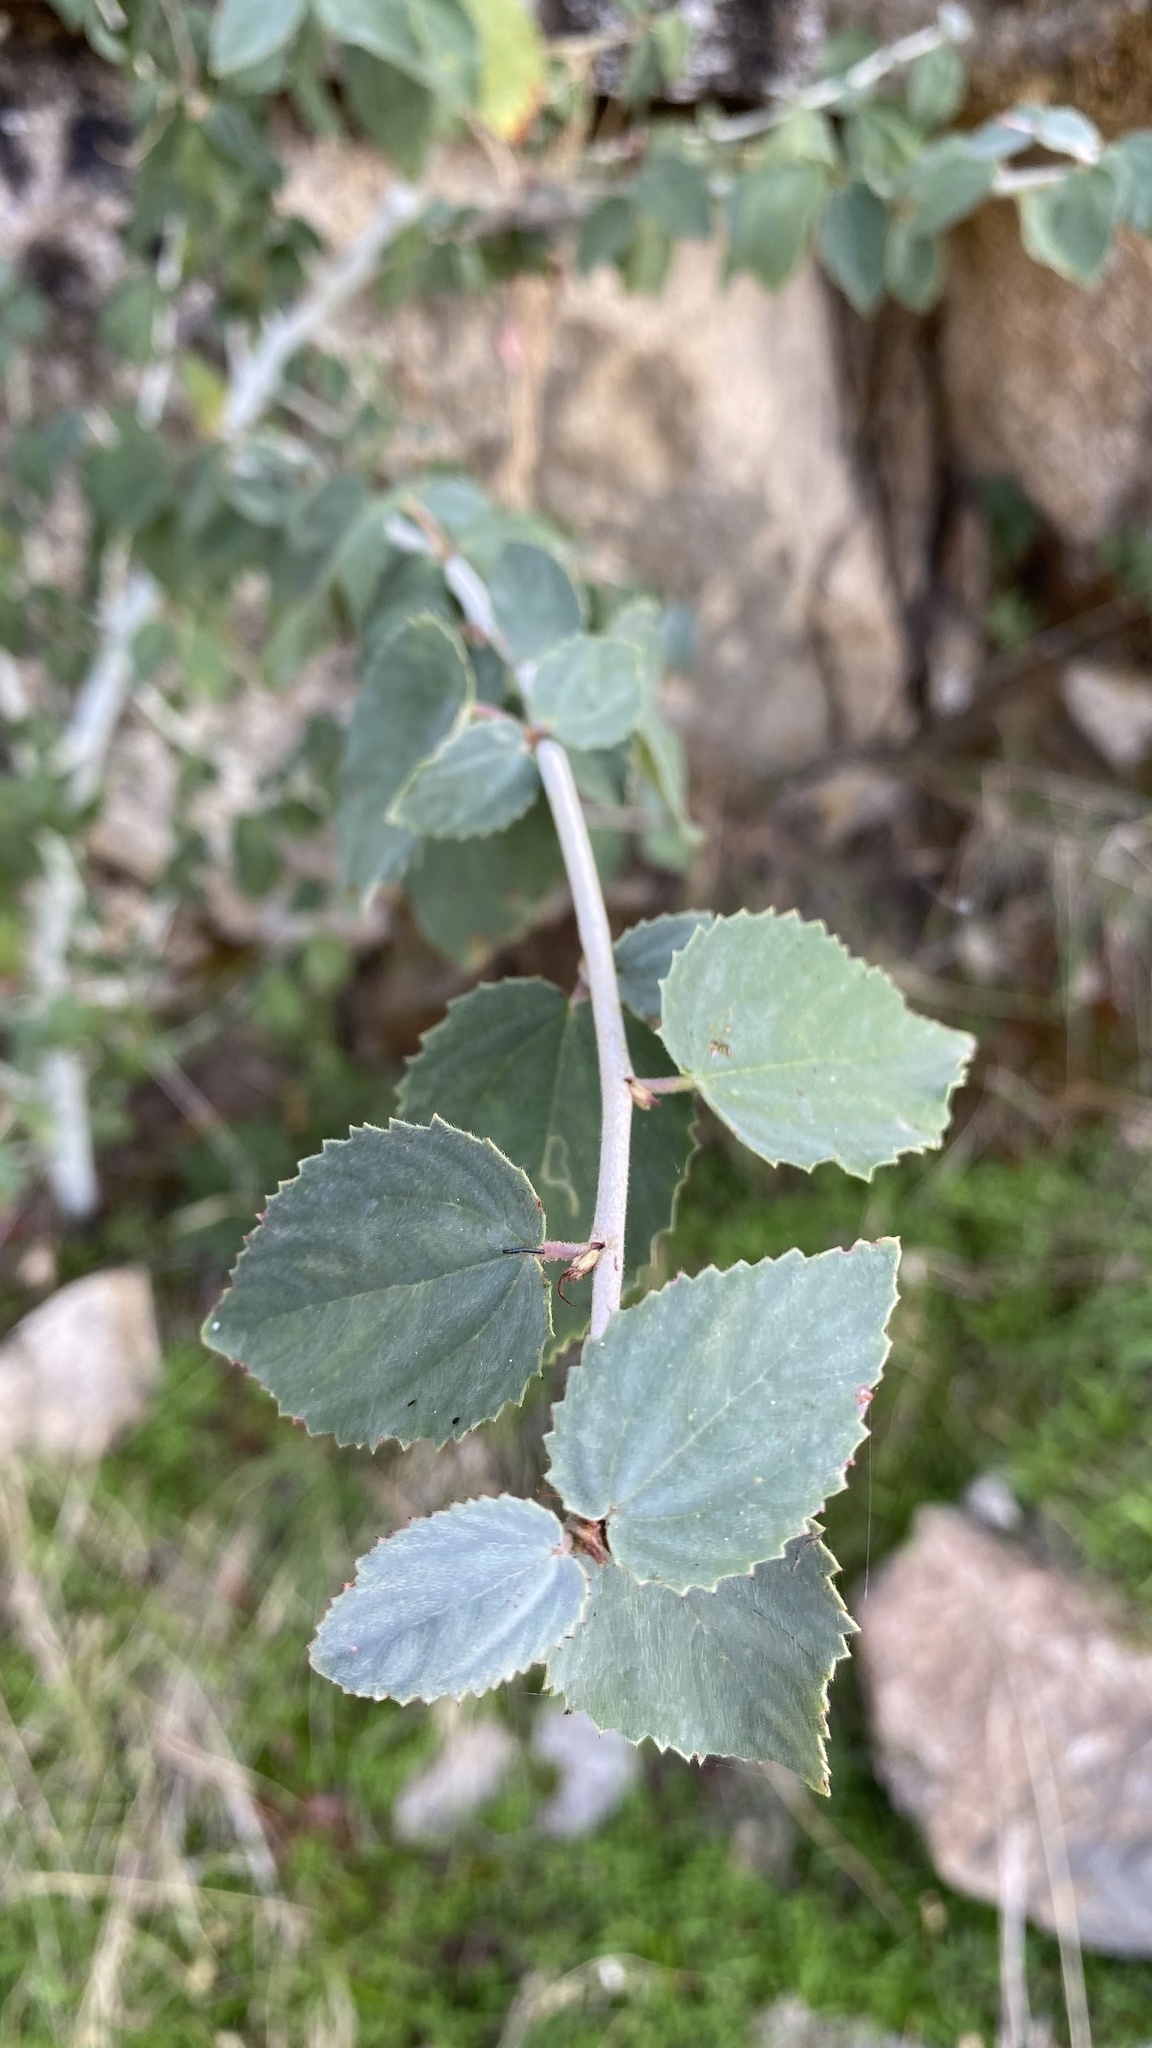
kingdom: Plantae
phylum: Tracheophyta
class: Magnoliopsida
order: Rosales
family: Rhamnaceae
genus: Ceanothus
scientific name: Ceanothus leucodermis
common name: Chaparral whitethorn
